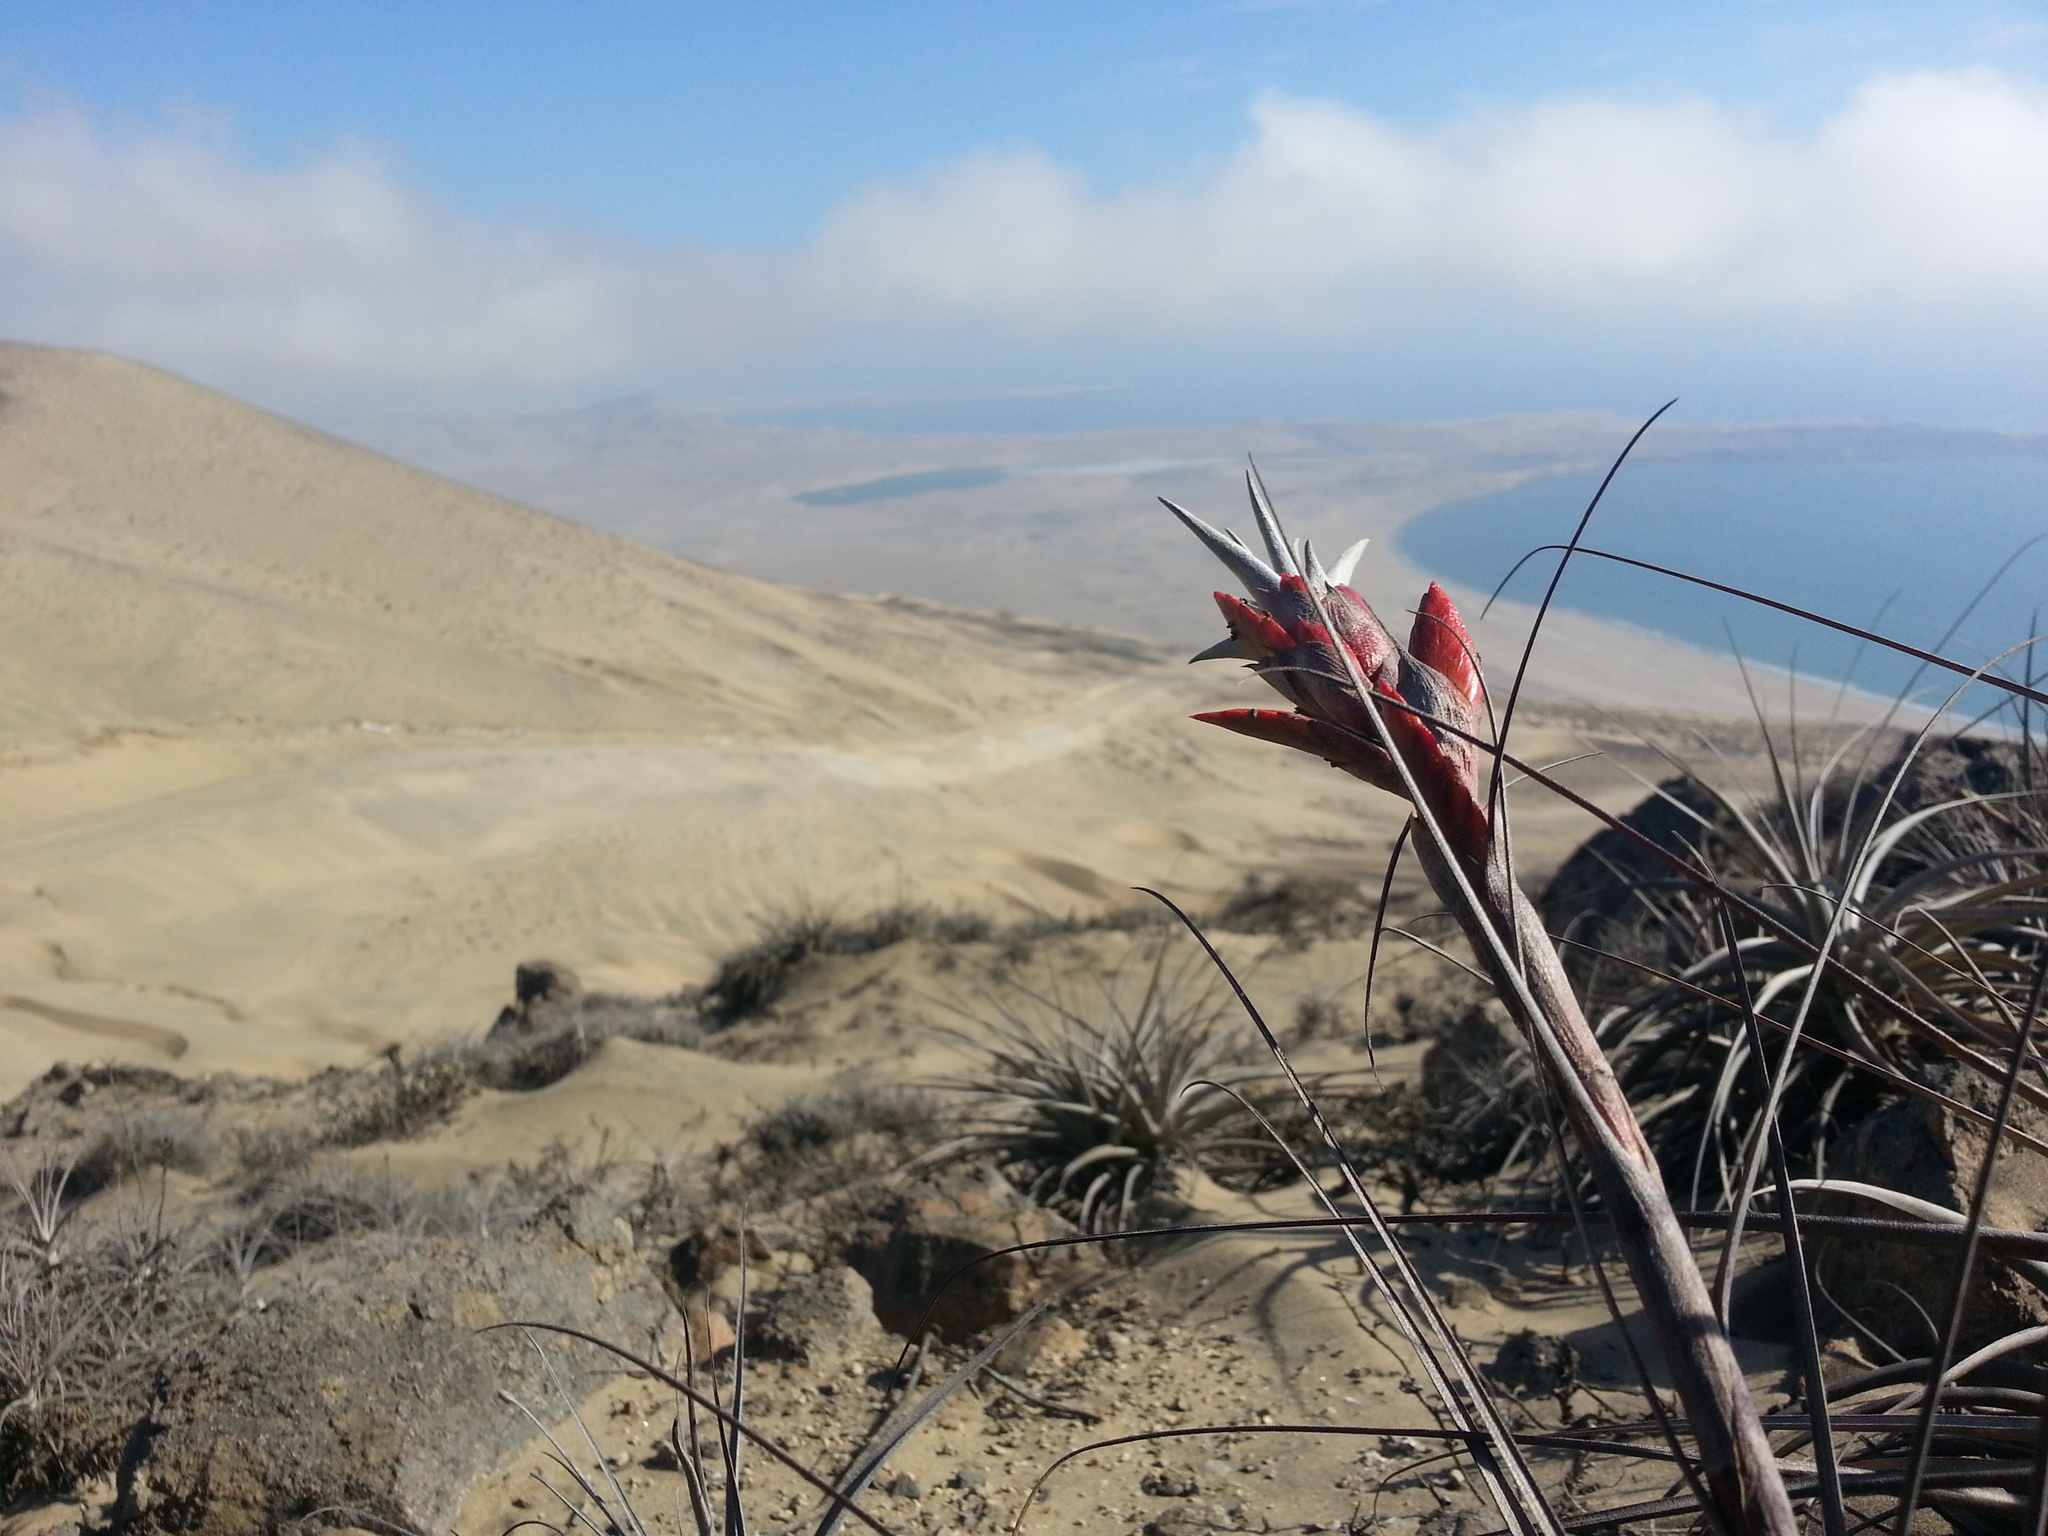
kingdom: Plantae
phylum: Tracheophyta
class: Liliopsida
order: Poales
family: Bromeliaceae
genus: Tillandsia
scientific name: Tillandsia latifolia
